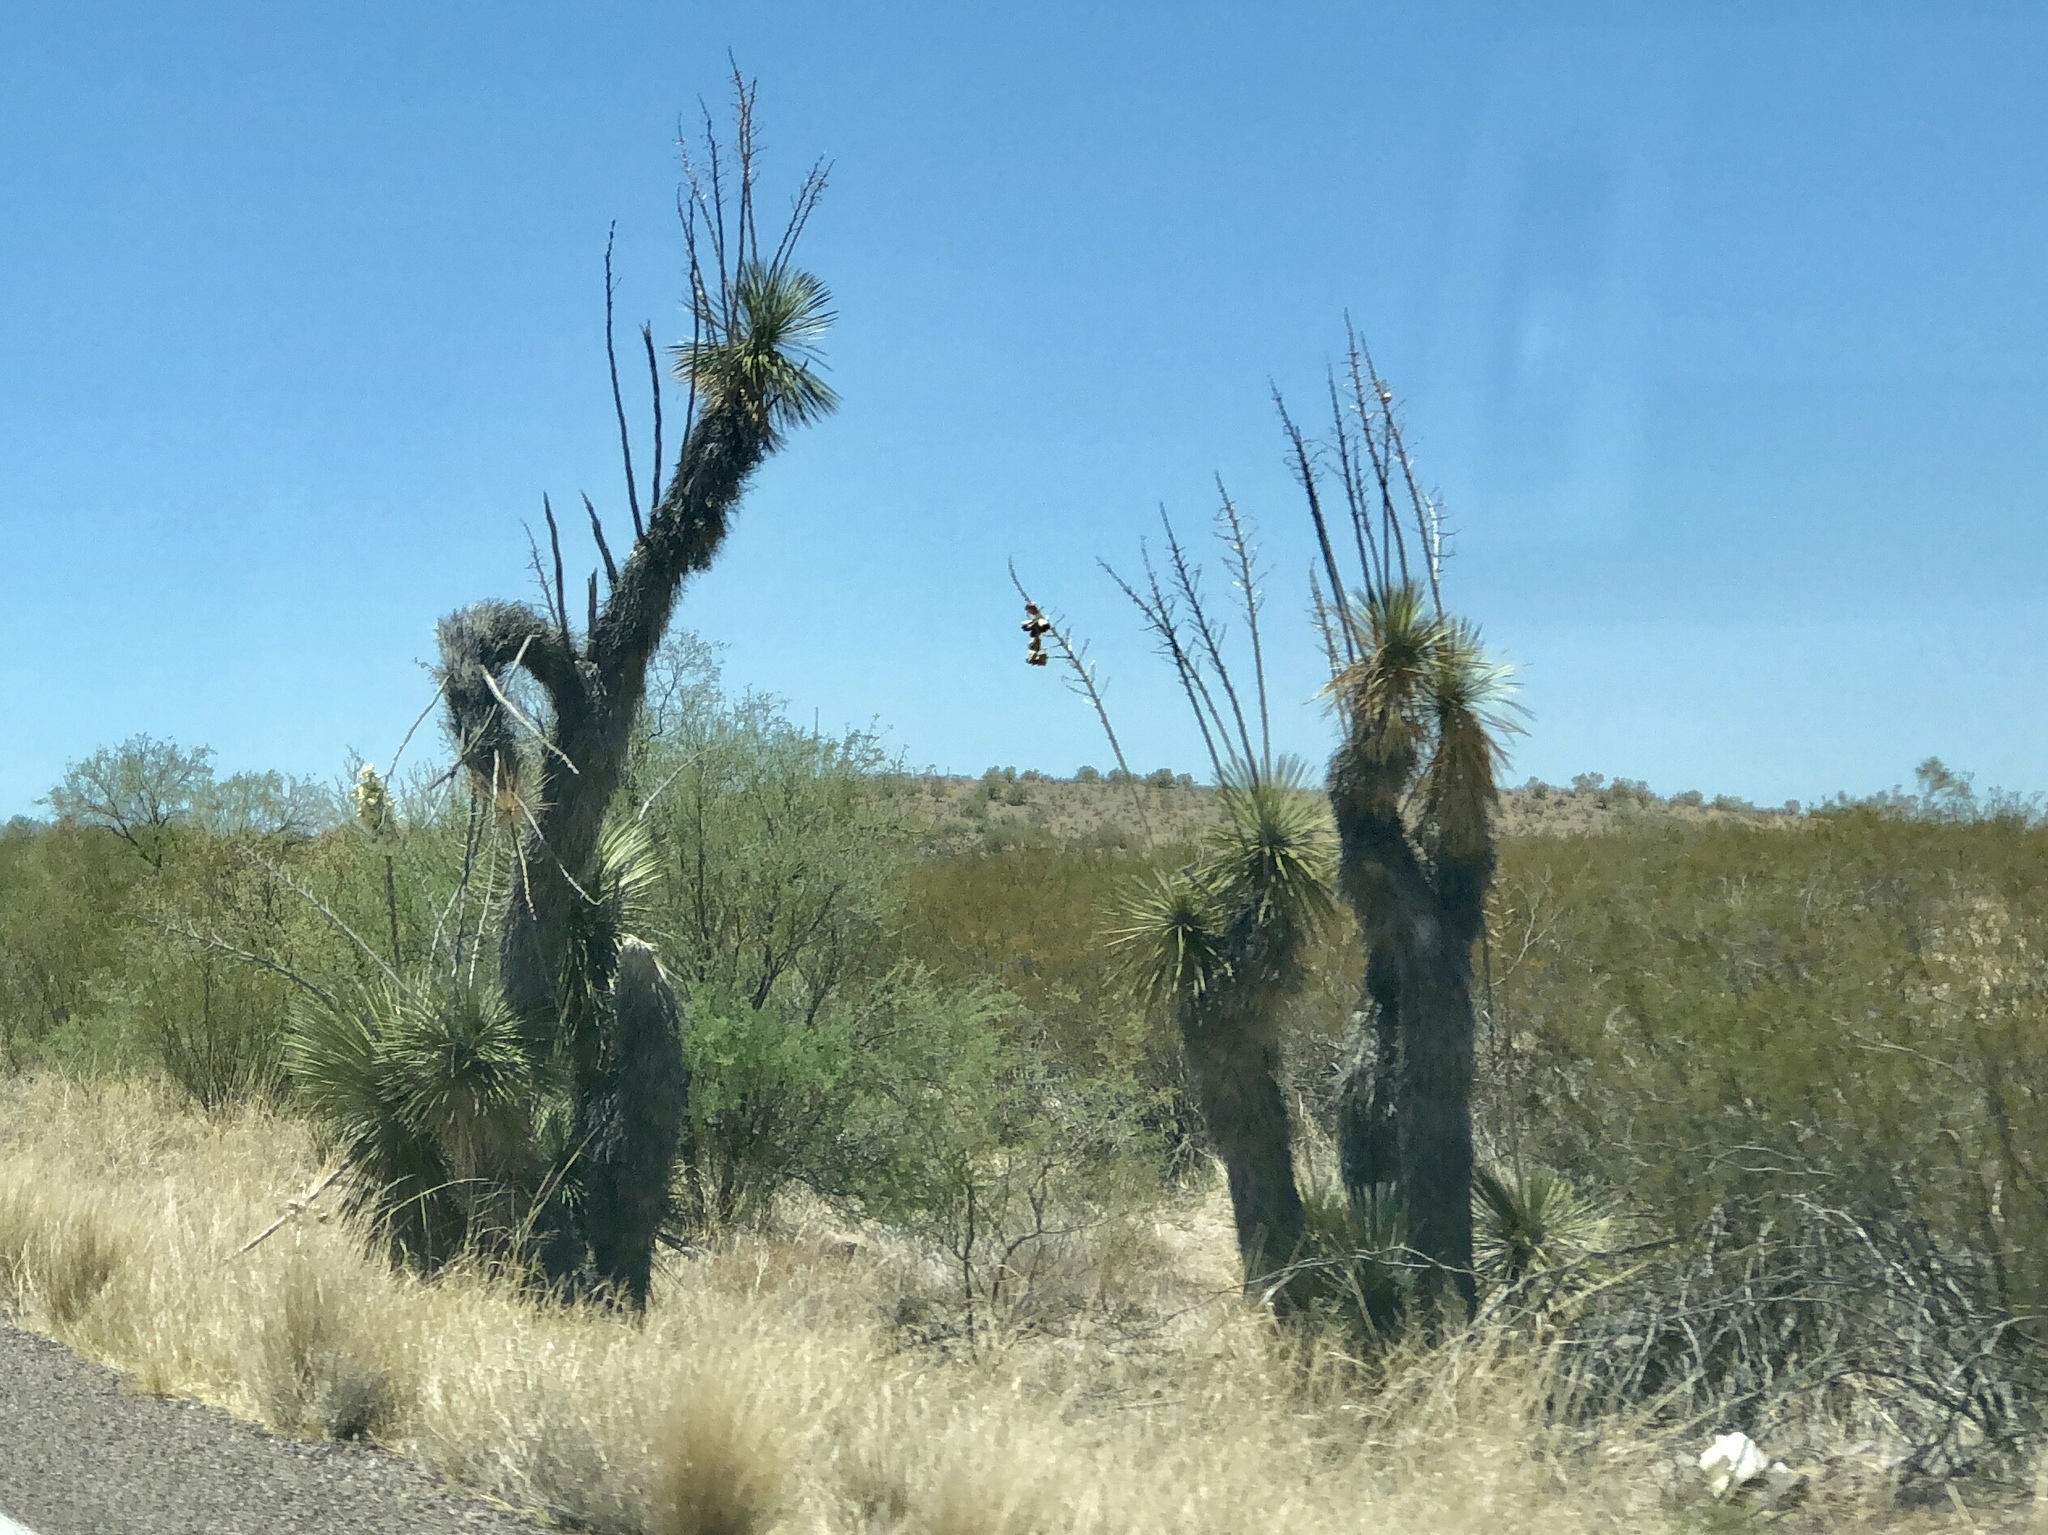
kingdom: Plantae
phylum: Tracheophyta
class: Liliopsida
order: Asparagales
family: Asparagaceae
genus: Yucca
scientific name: Yucca elata
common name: Palmella
